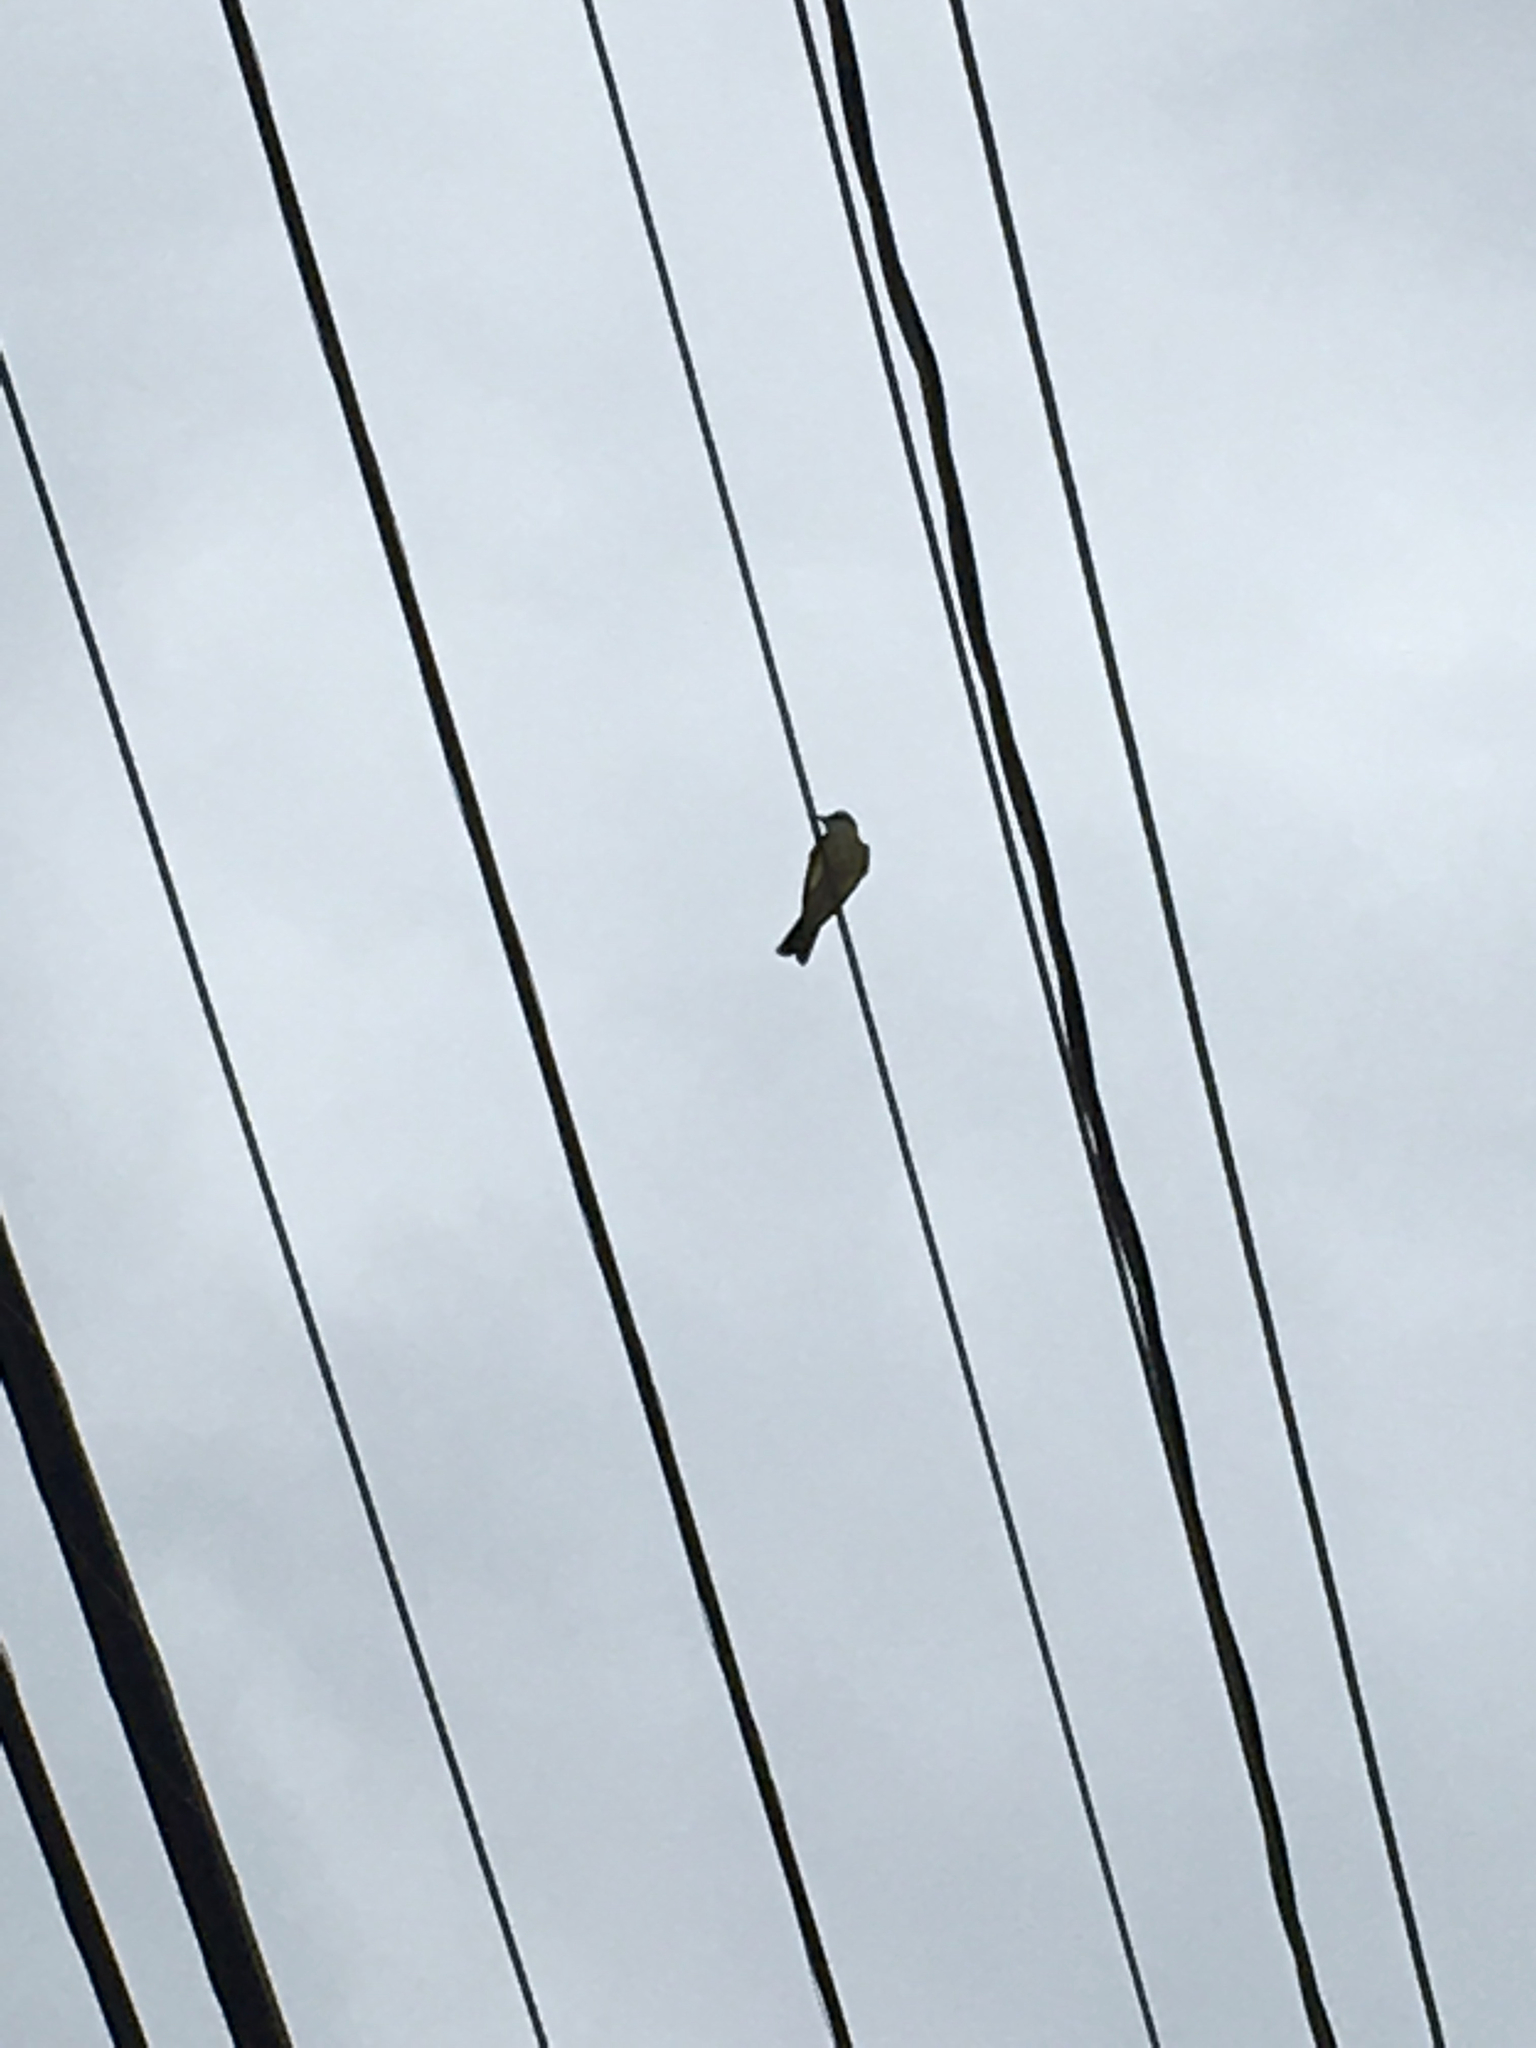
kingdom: Animalia
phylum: Chordata
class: Aves
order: Passeriformes
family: Tyrannidae
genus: Tyrannus
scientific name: Tyrannus verticalis
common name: Western kingbird
